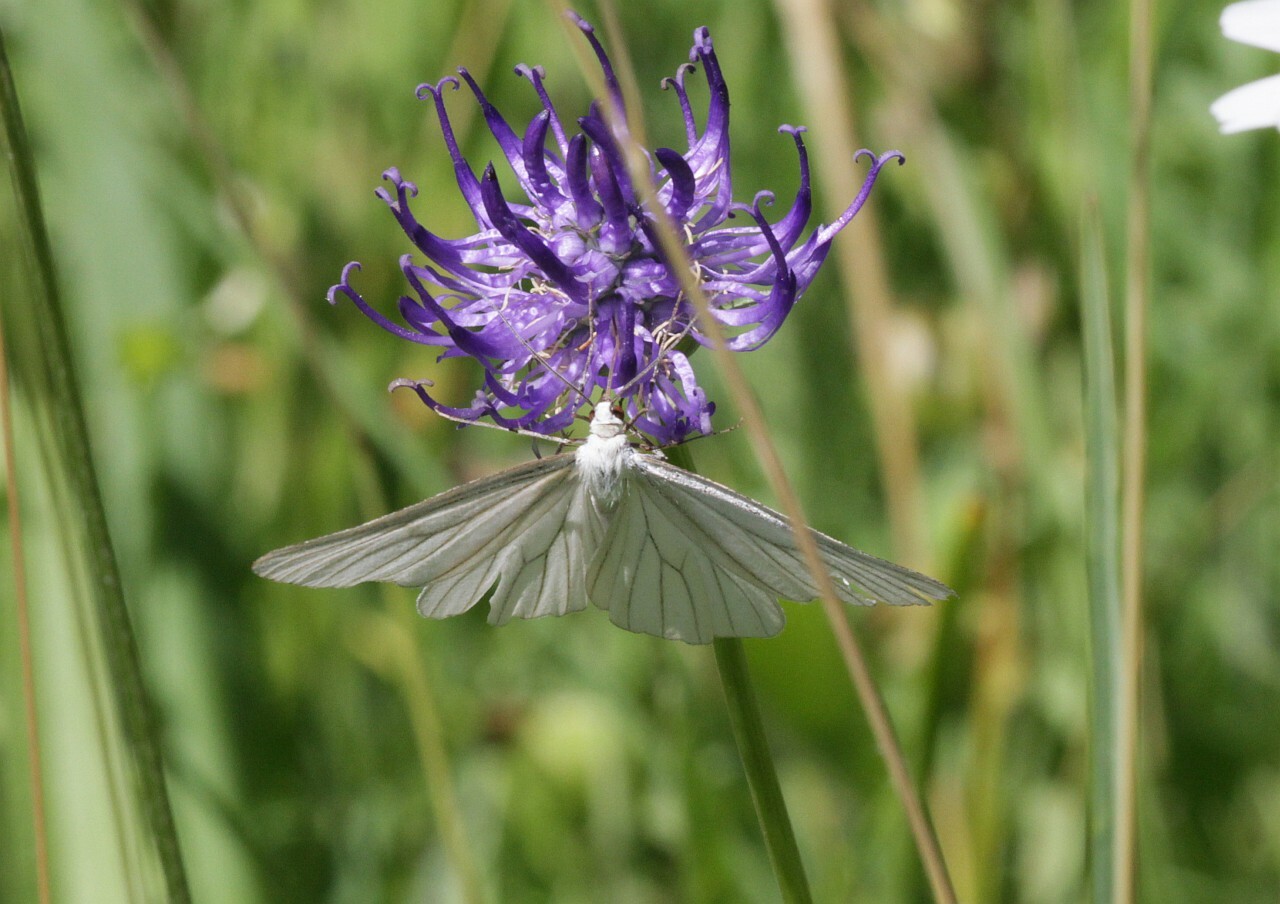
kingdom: Animalia
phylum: Arthropoda
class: Insecta
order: Lepidoptera
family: Geometridae
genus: Siona
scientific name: Siona lineata
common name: Black-veined moth
